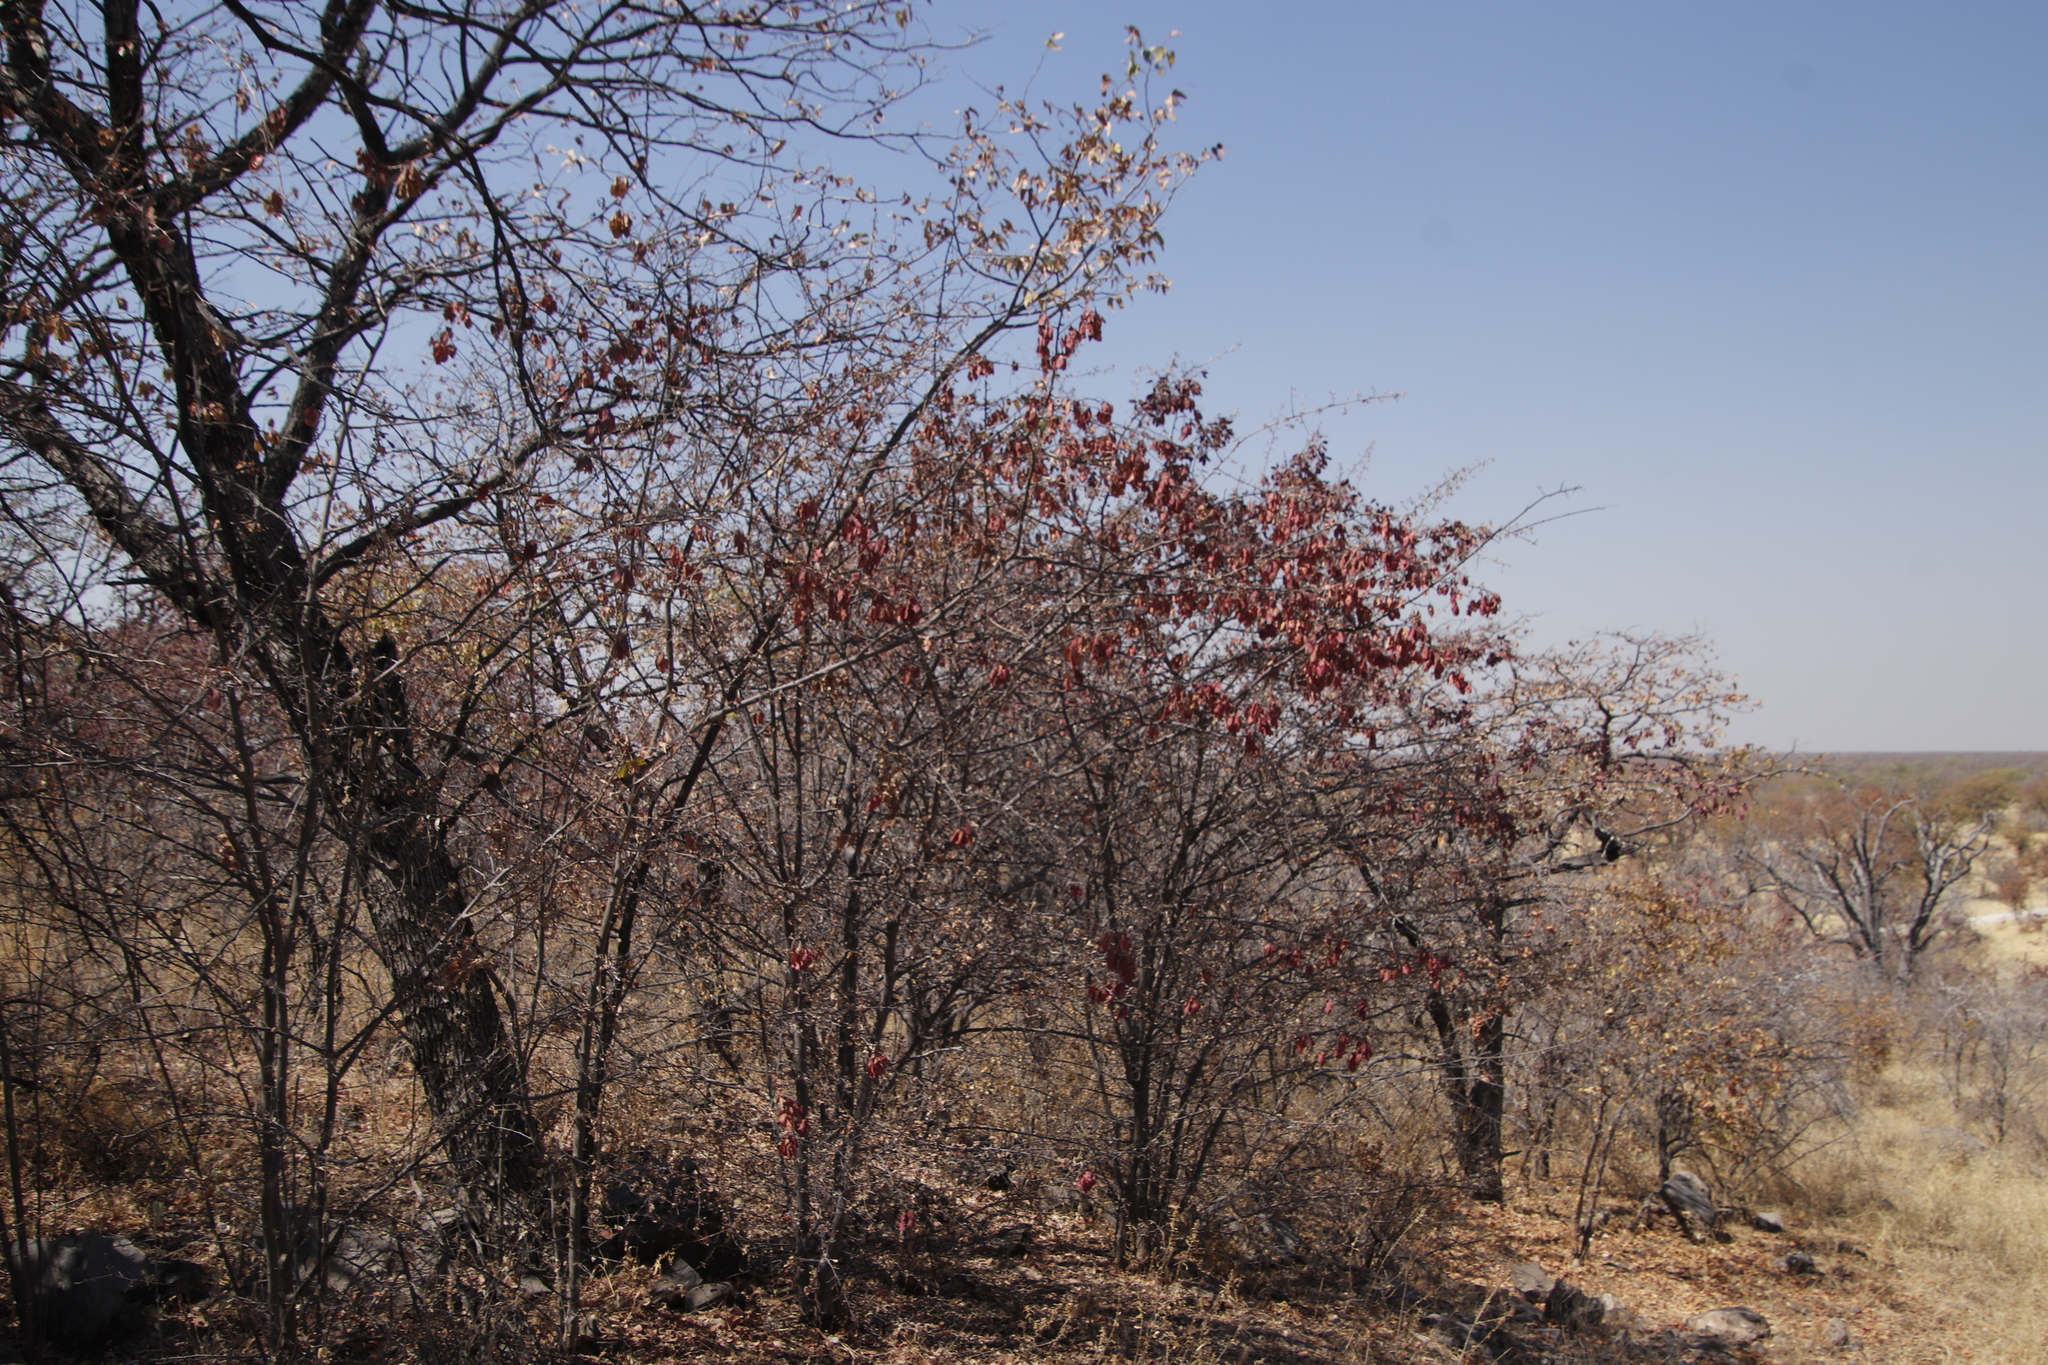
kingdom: Plantae
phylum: Tracheophyta
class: Magnoliopsida
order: Myrtales
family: Combretaceae
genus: Terminalia
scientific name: Terminalia prunioides
